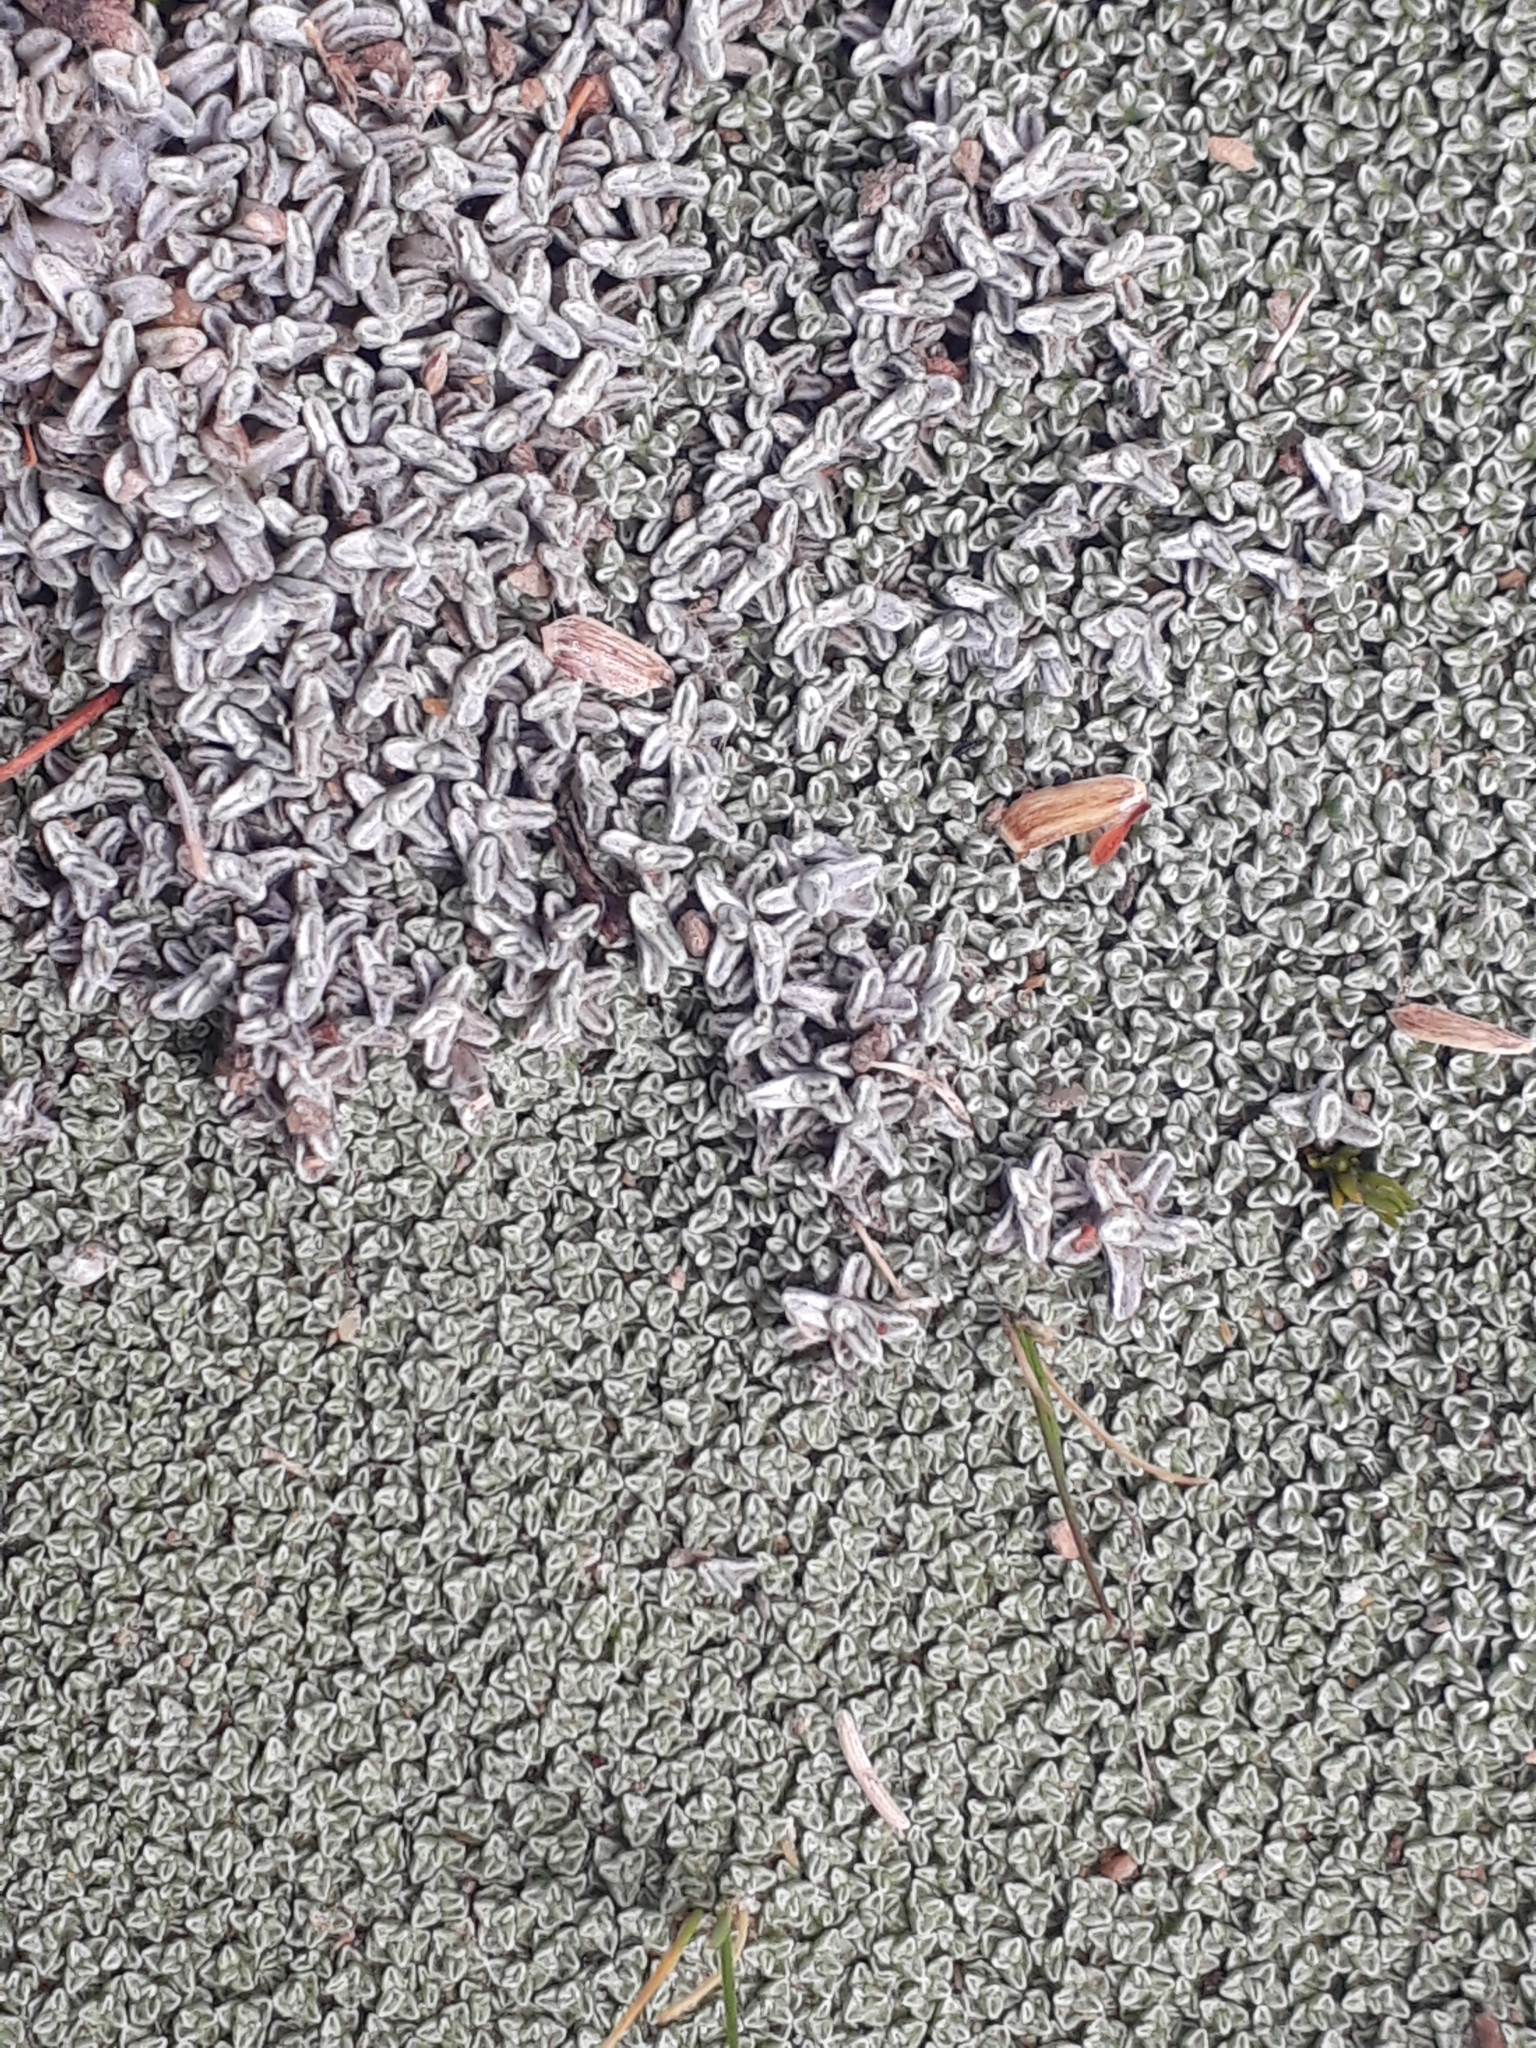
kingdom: Plantae
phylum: Tracheophyta
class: Magnoliopsida
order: Asterales
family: Asteraceae
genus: Raoulia
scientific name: Raoulia beauverdii
